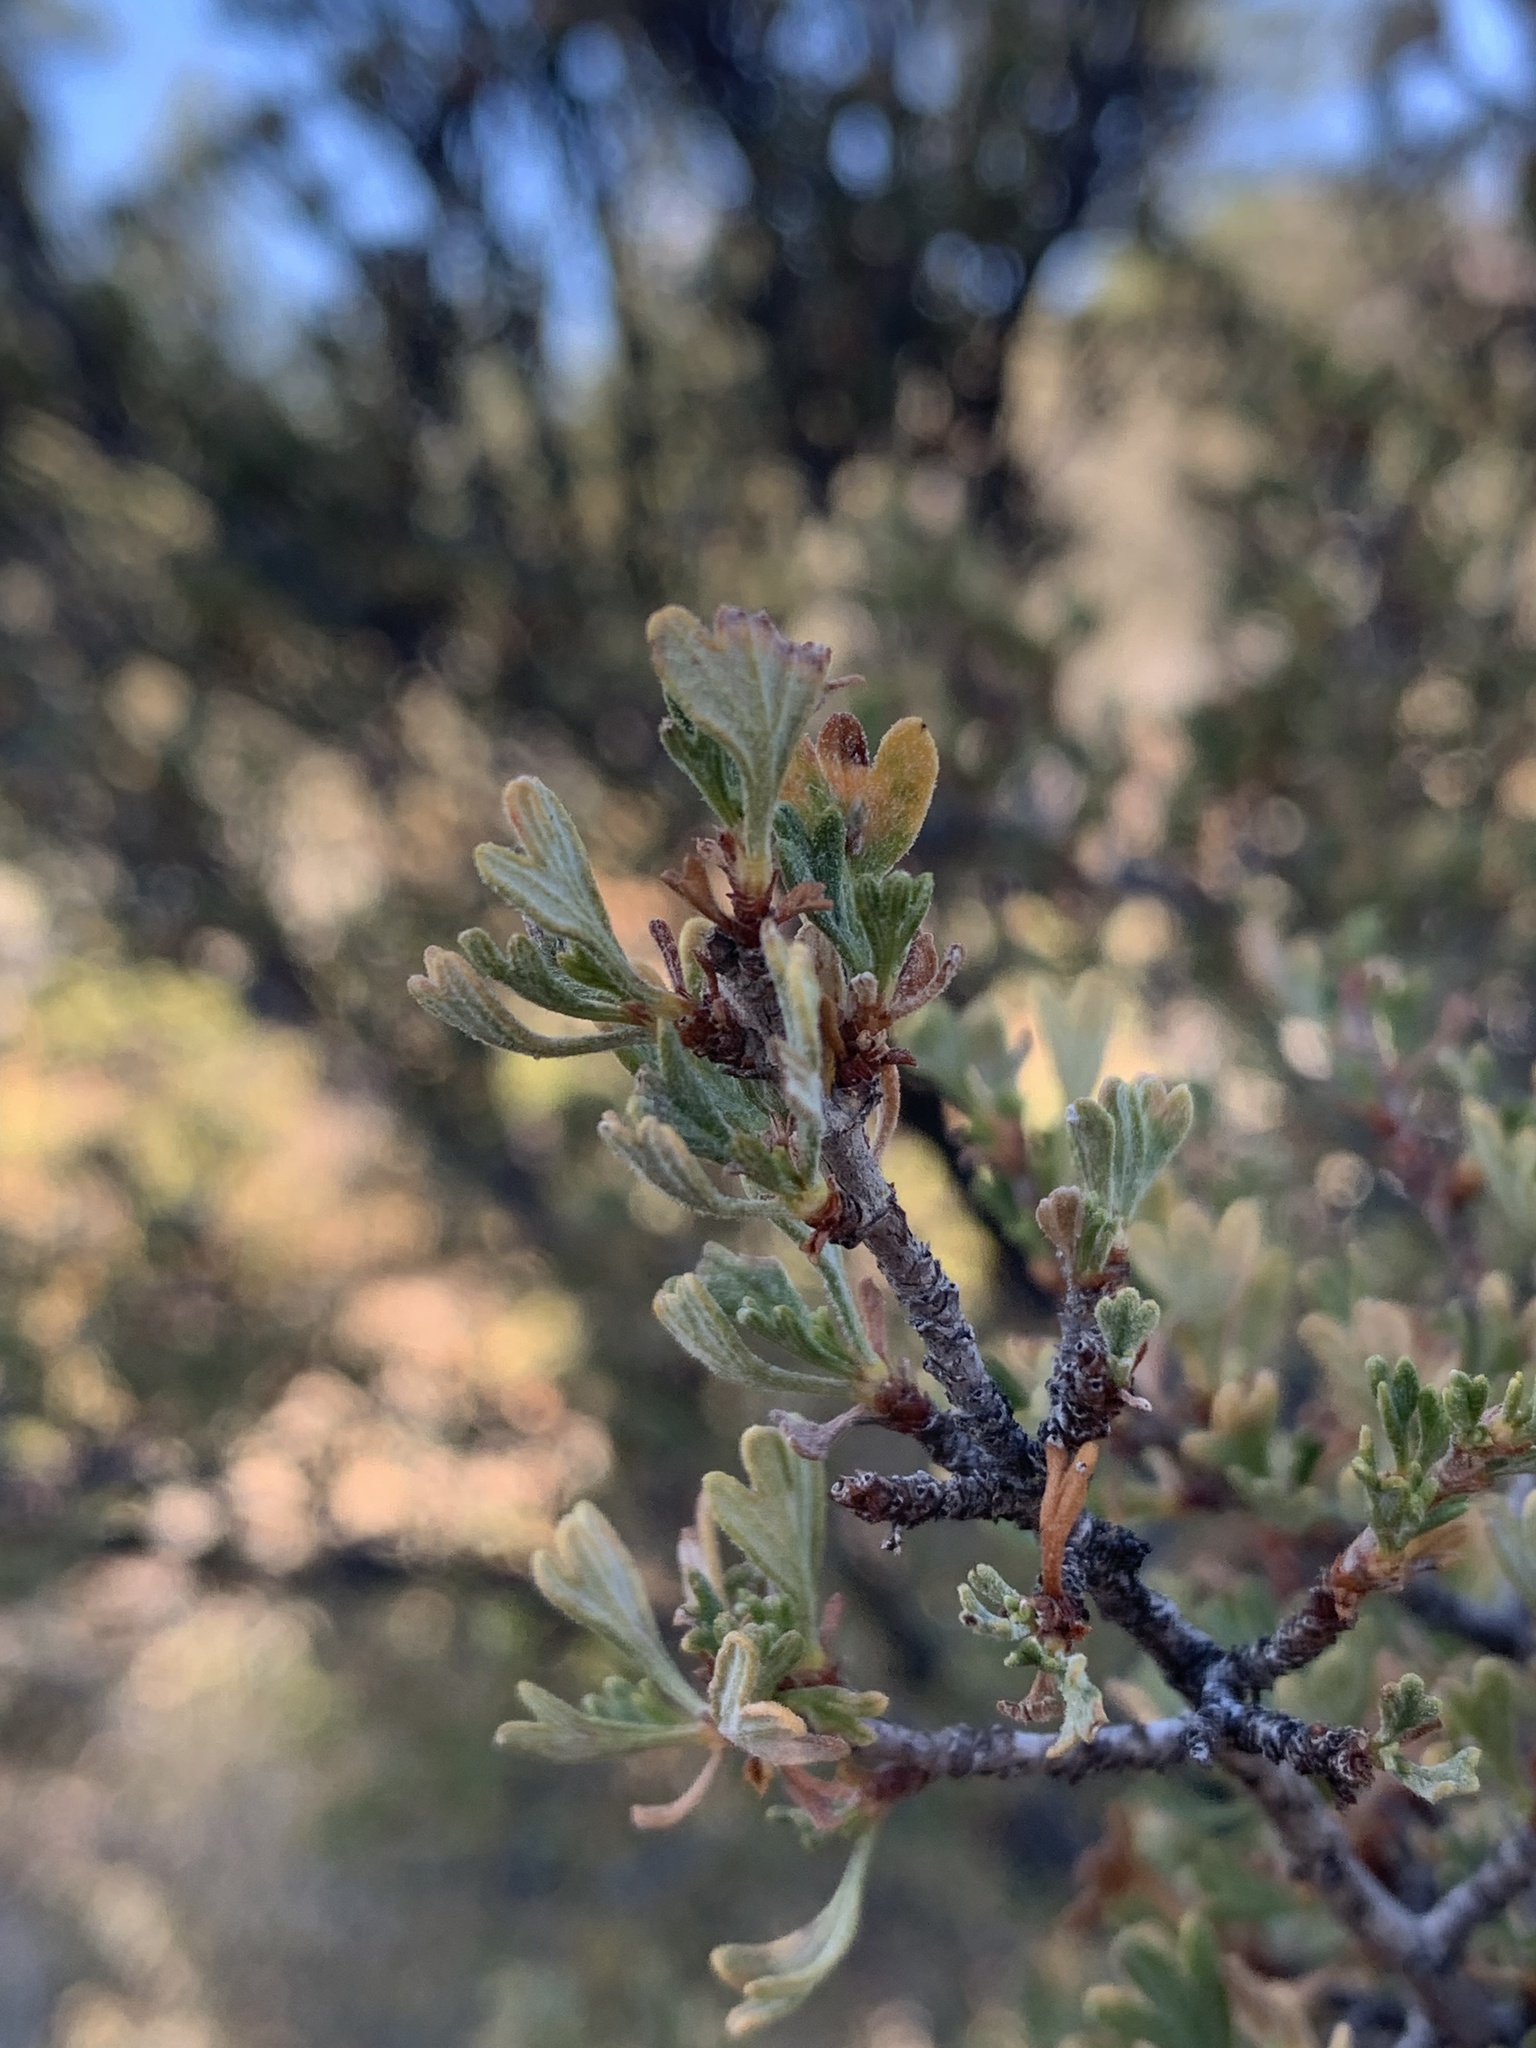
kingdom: Plantae
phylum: Tracheophyta
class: Magnoliopsida
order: Rosales
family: Rosaceae
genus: Purshia
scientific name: Purshia tridentata
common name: Antelope bitterbrush
